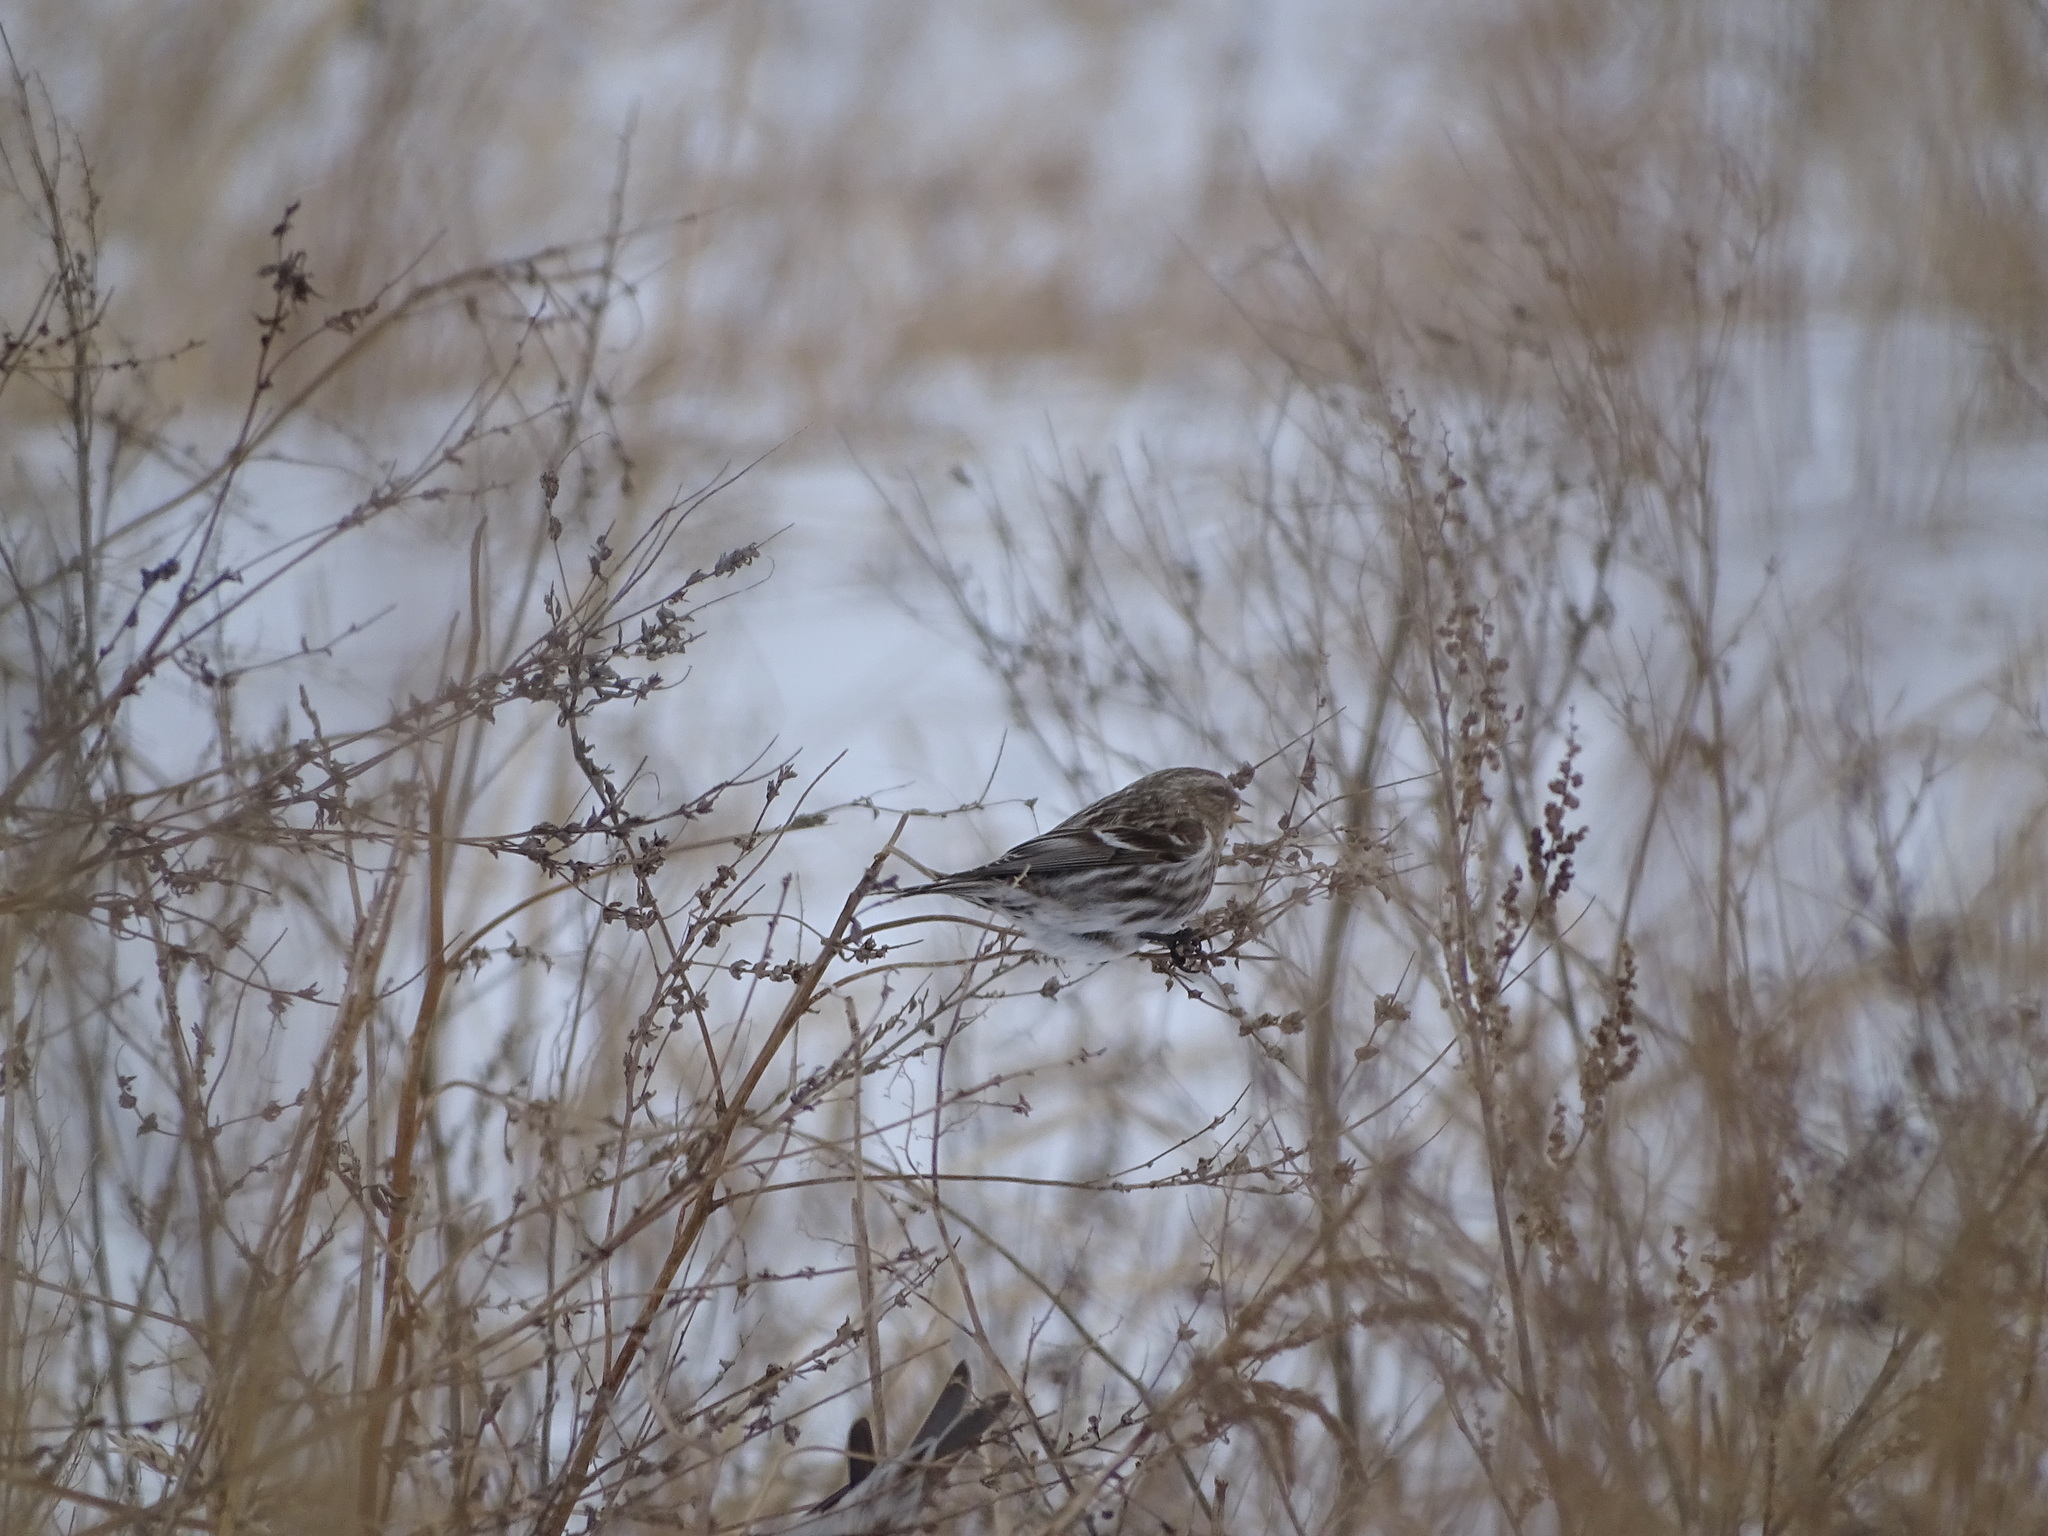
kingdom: Animalia
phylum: Chordata
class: Aves
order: Passeriformes
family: Fringillidae
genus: Acanthis
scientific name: Acanthis flammea
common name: Common redpoll
